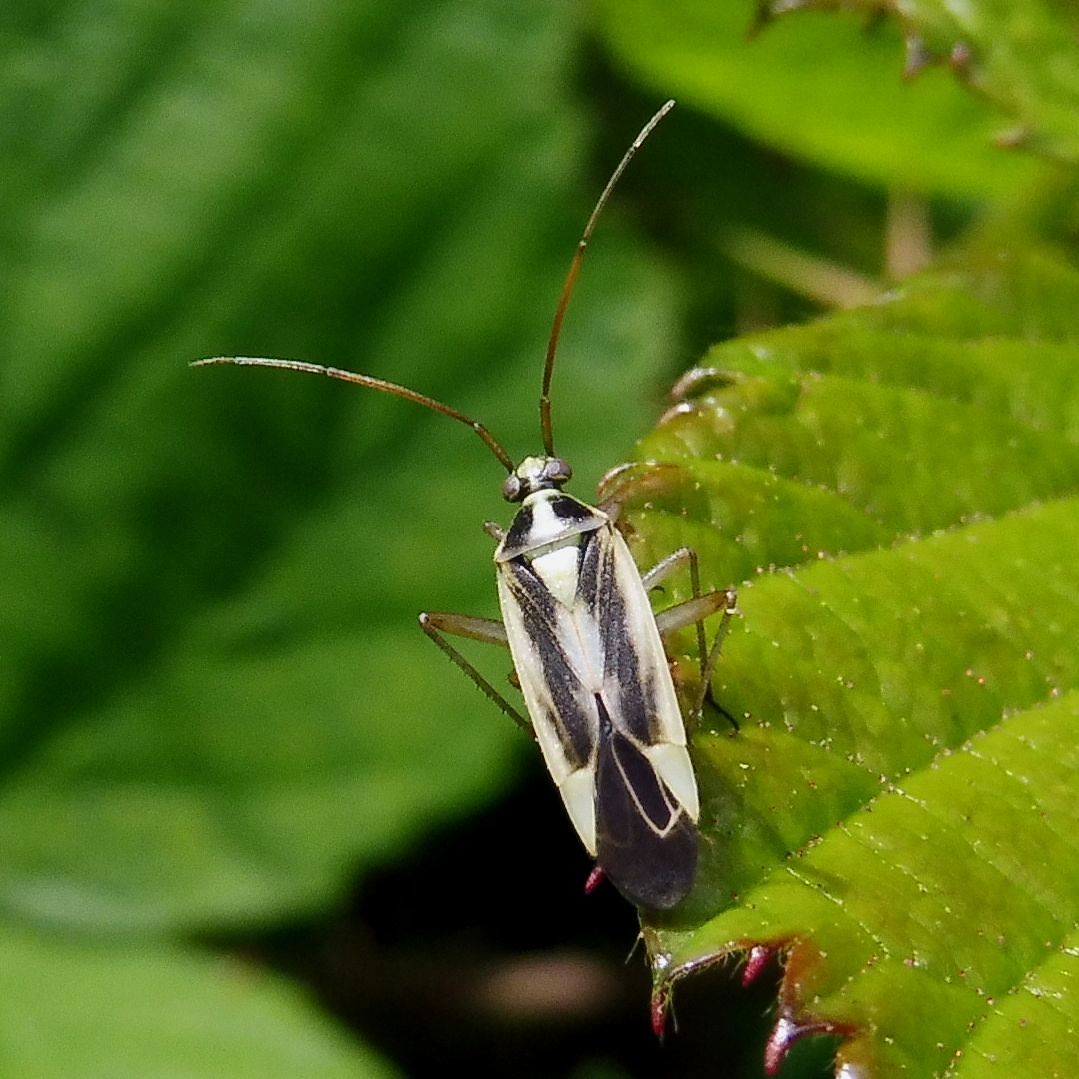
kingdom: Animalia
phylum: Arthropoda
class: Insecta
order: Hemiptera
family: Miridae
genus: Stenotus
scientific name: Stenotus binotatus
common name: Plant bug
